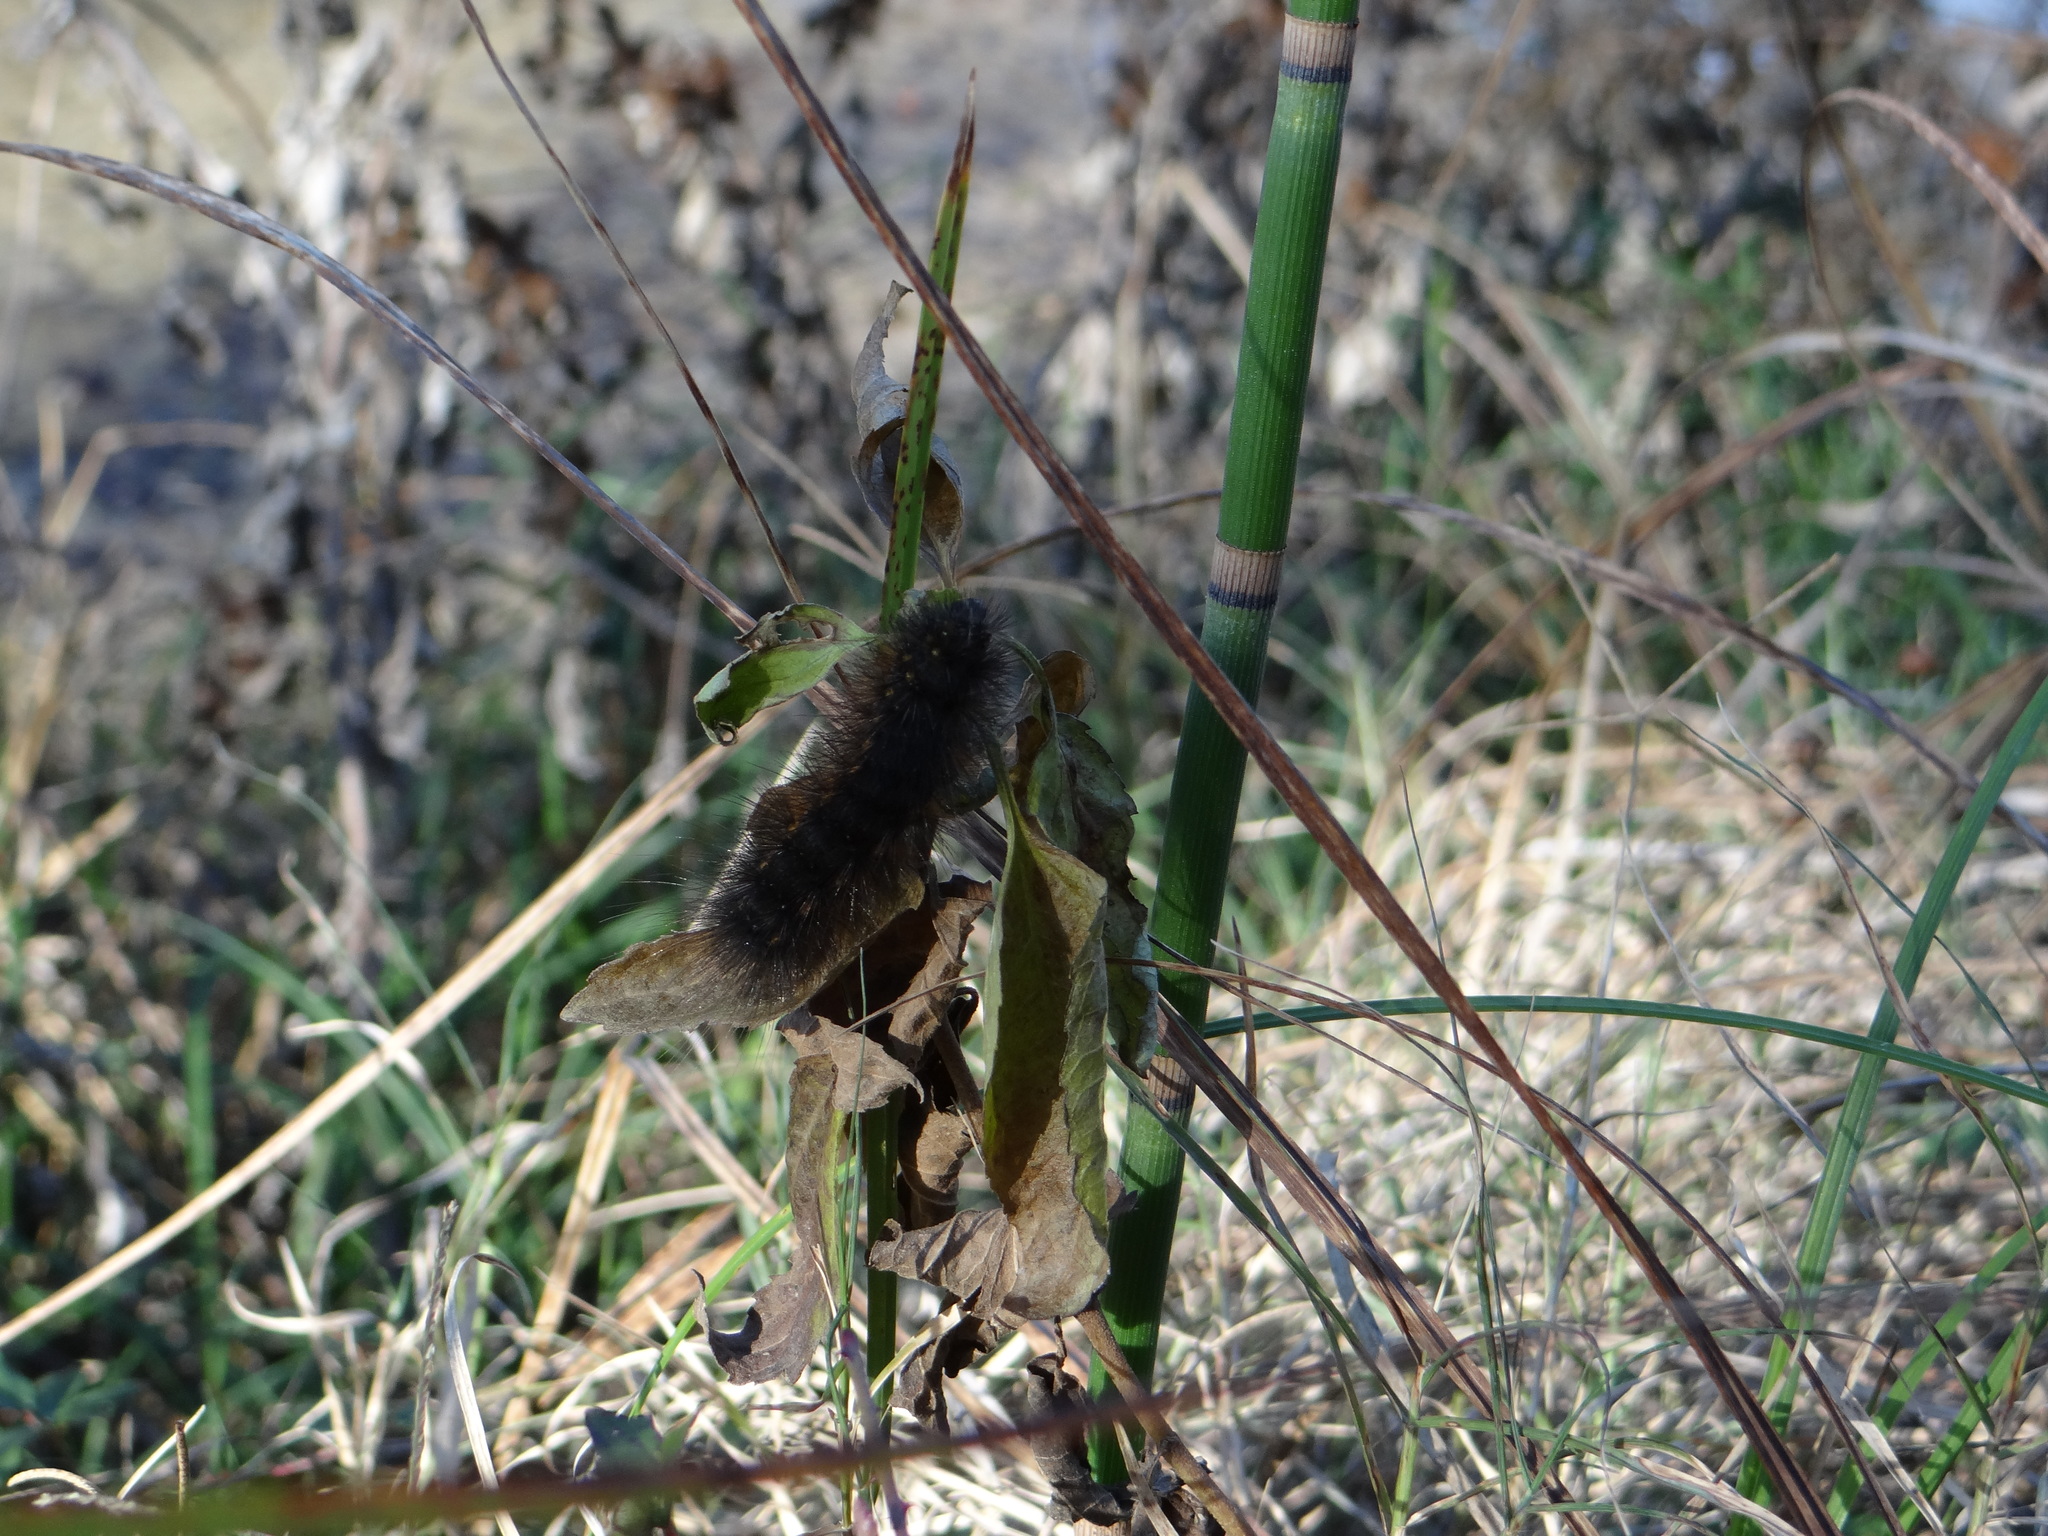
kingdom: Animalia
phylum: Arthropoda
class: Insecta
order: Lepidoptera
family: Erebidae
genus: Estigmene
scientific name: Estigmene acrea
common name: Salt marsh moth
